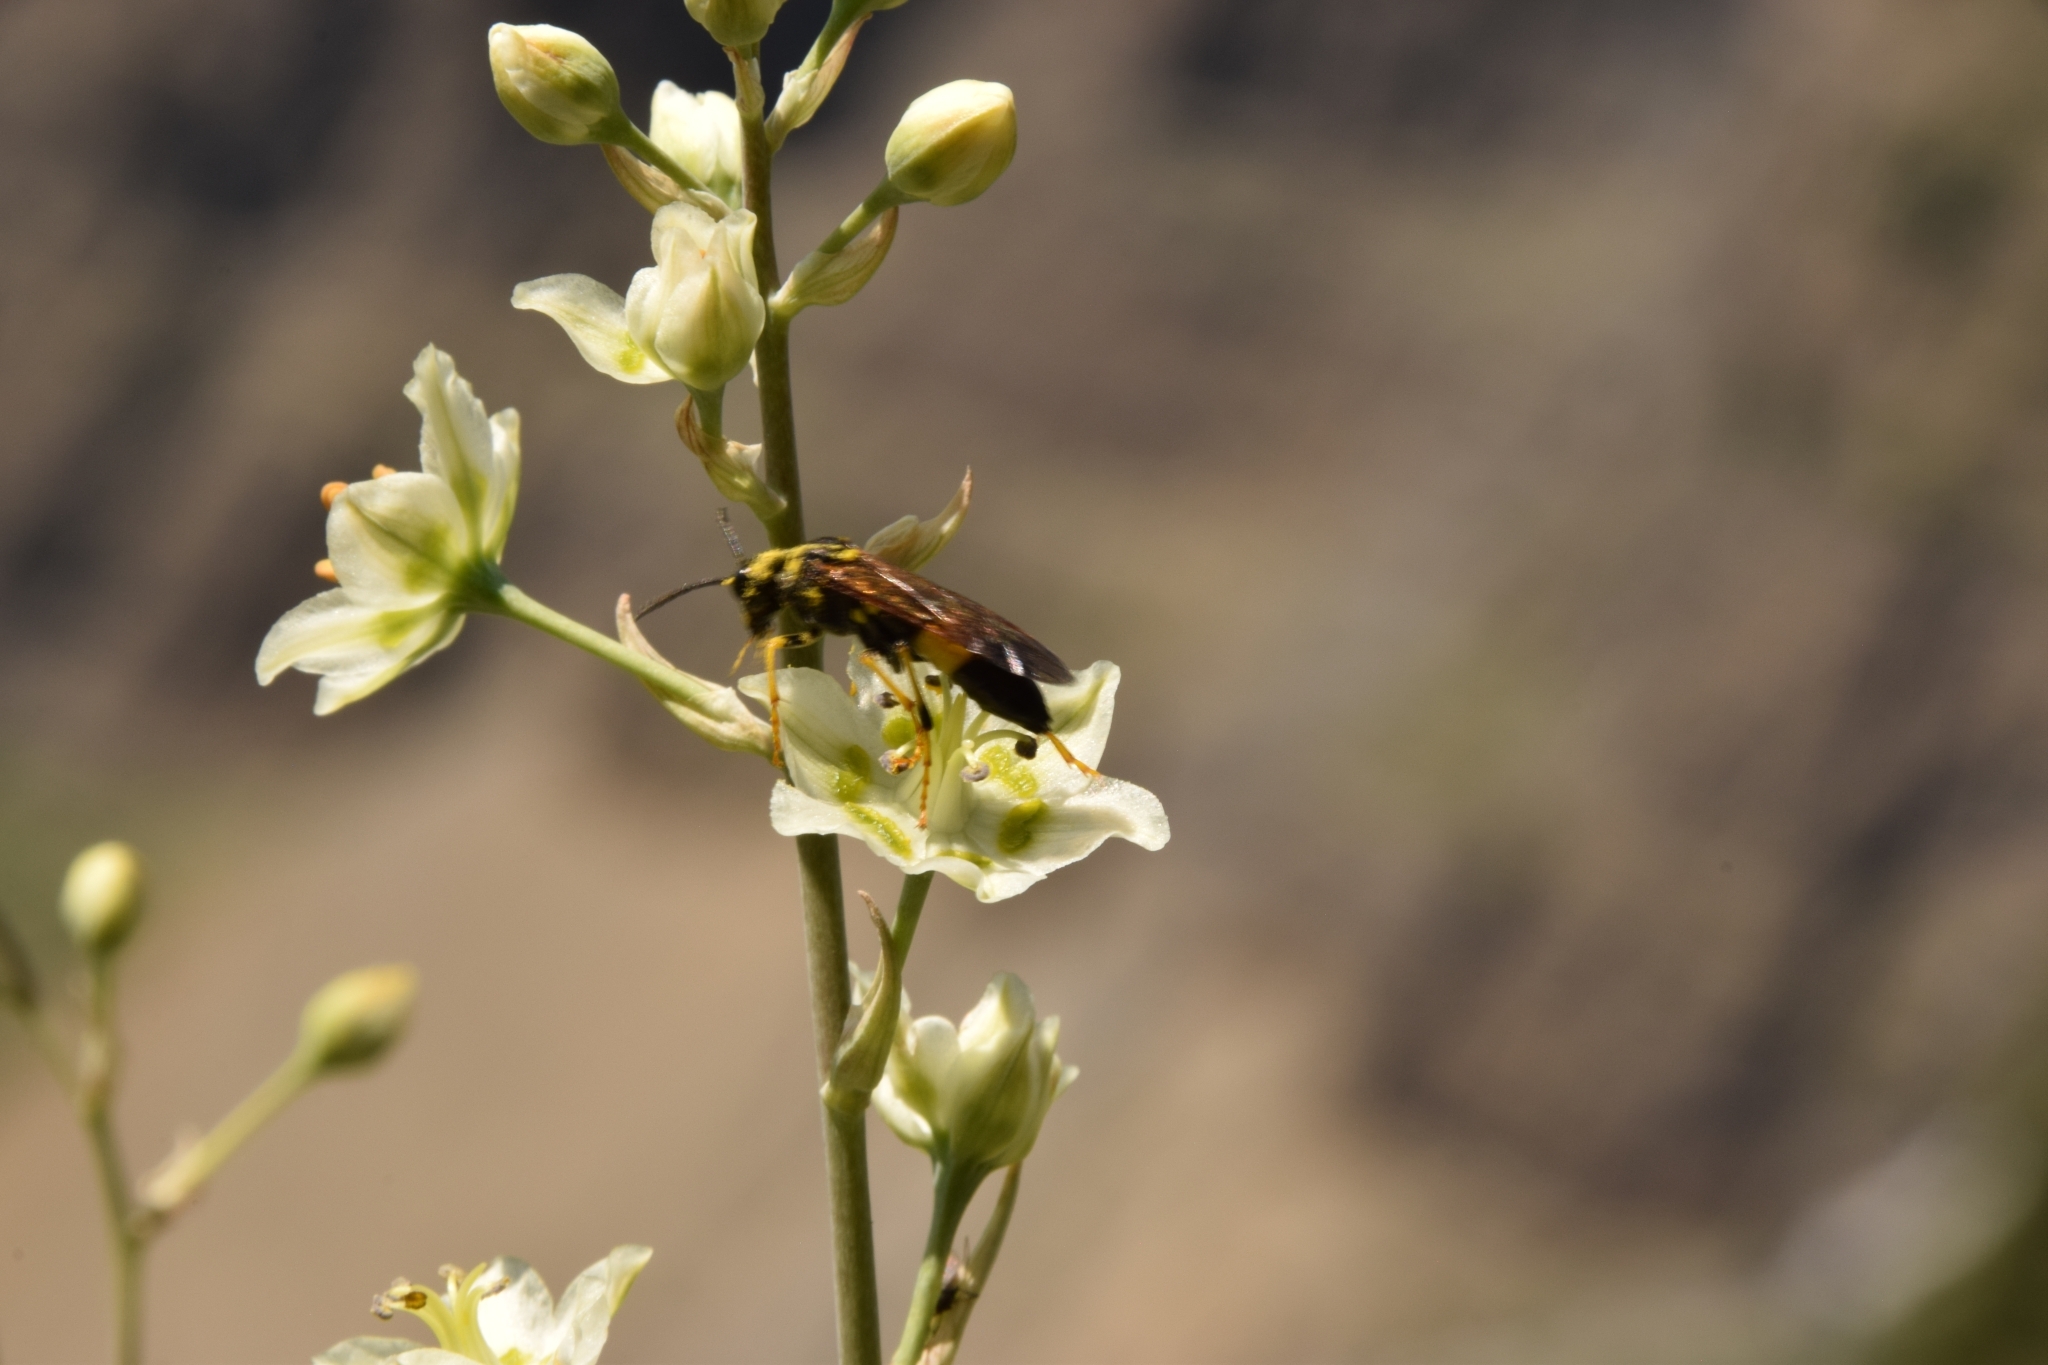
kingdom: Plantae
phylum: Tracheophyta
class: Liliopsida
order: Liliales
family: Melanthiaceae
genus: Anticlea
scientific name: Anticlea elegans
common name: Mountain death camas
